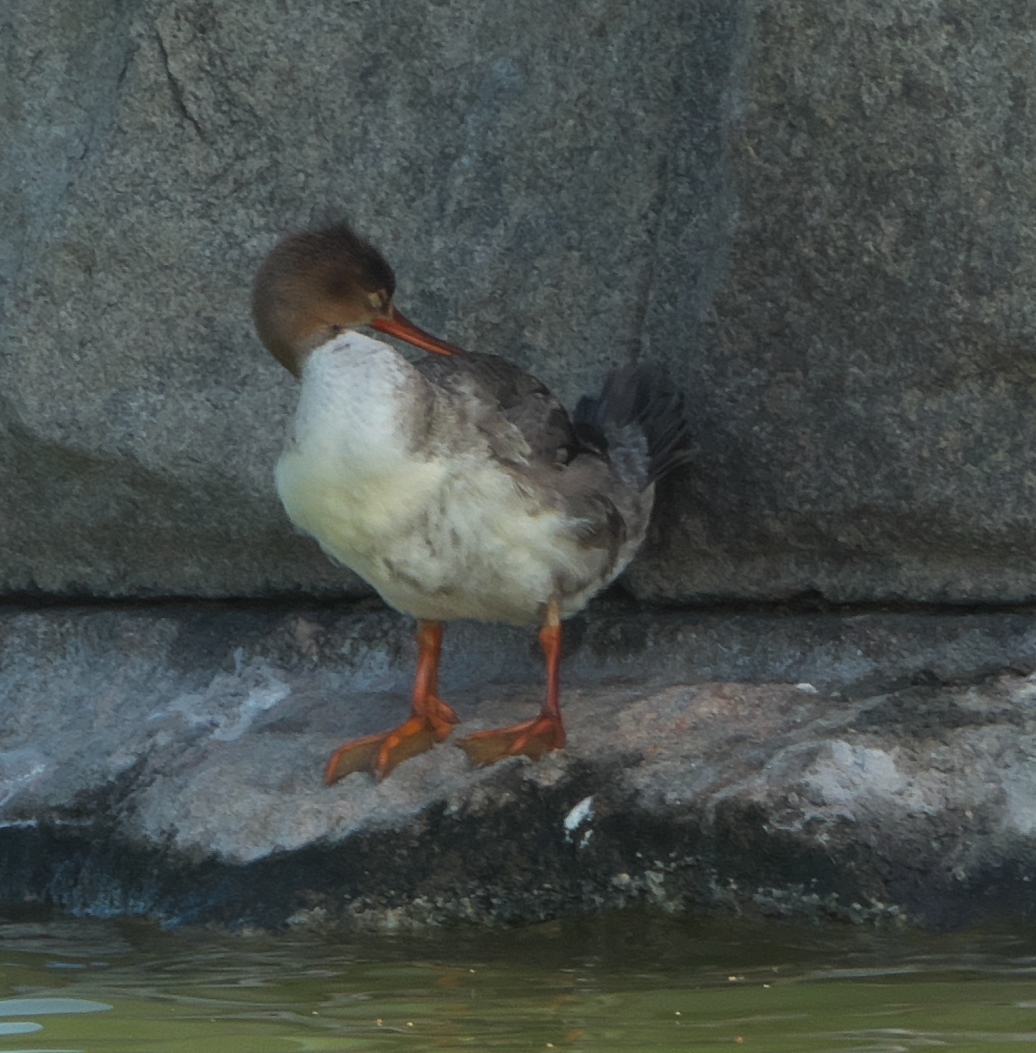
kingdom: Animalia
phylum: Chordata
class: Aves
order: Anseriformes
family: Anatidae
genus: Mergus
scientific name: Mergus serrator
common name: Red-breasted merganser
